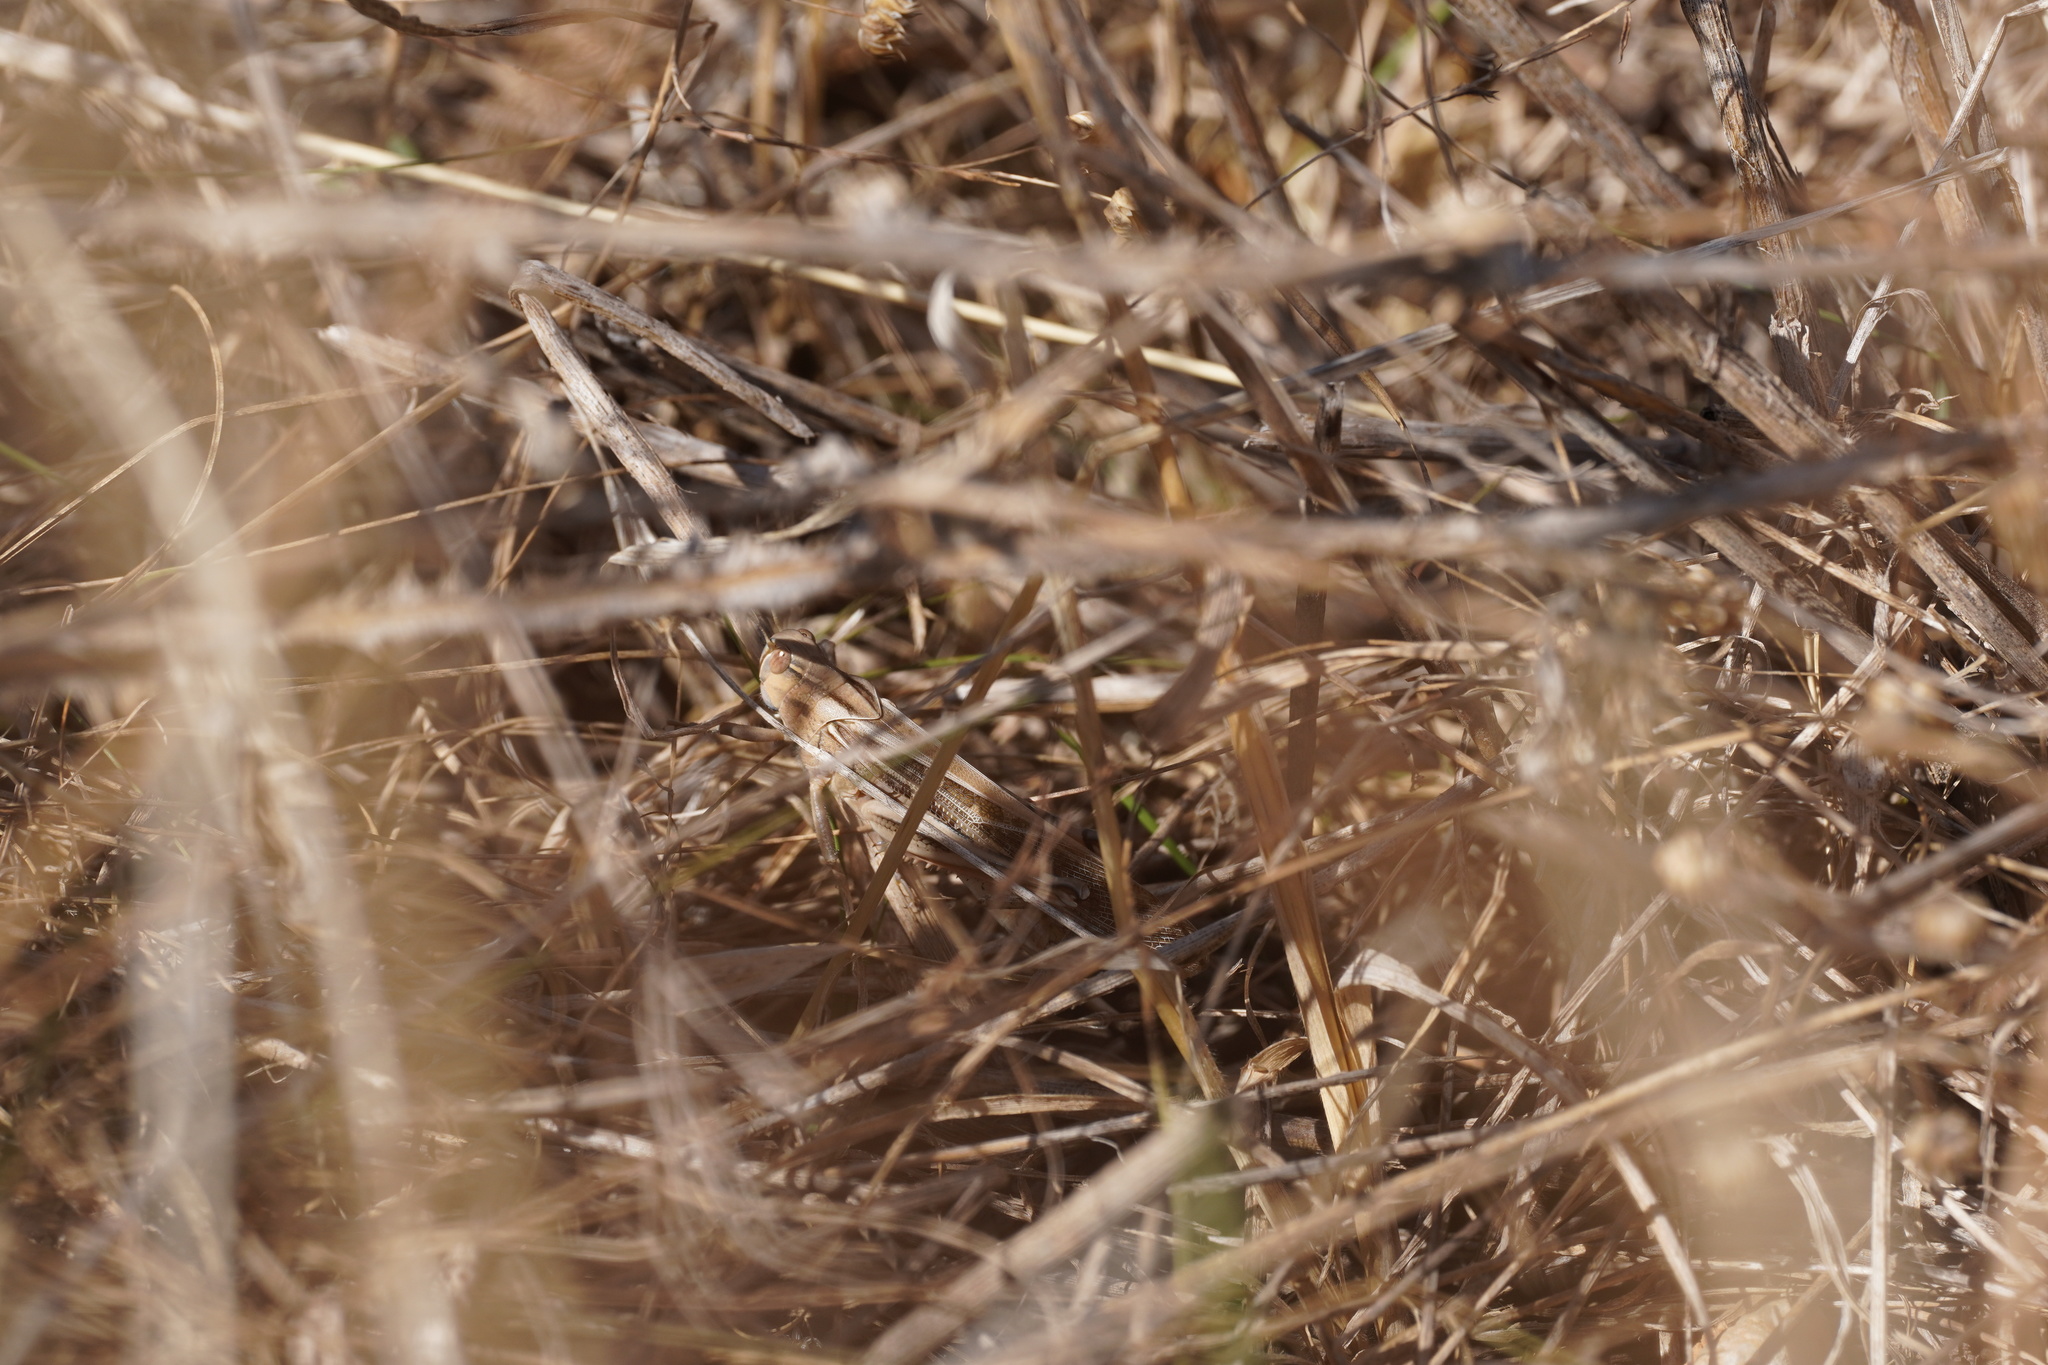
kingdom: Animalia
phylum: Arthropoda
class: Insecta
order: Orthoptera
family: Acrididae
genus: Locusta
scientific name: Locusta migratoria
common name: Migratory locust
